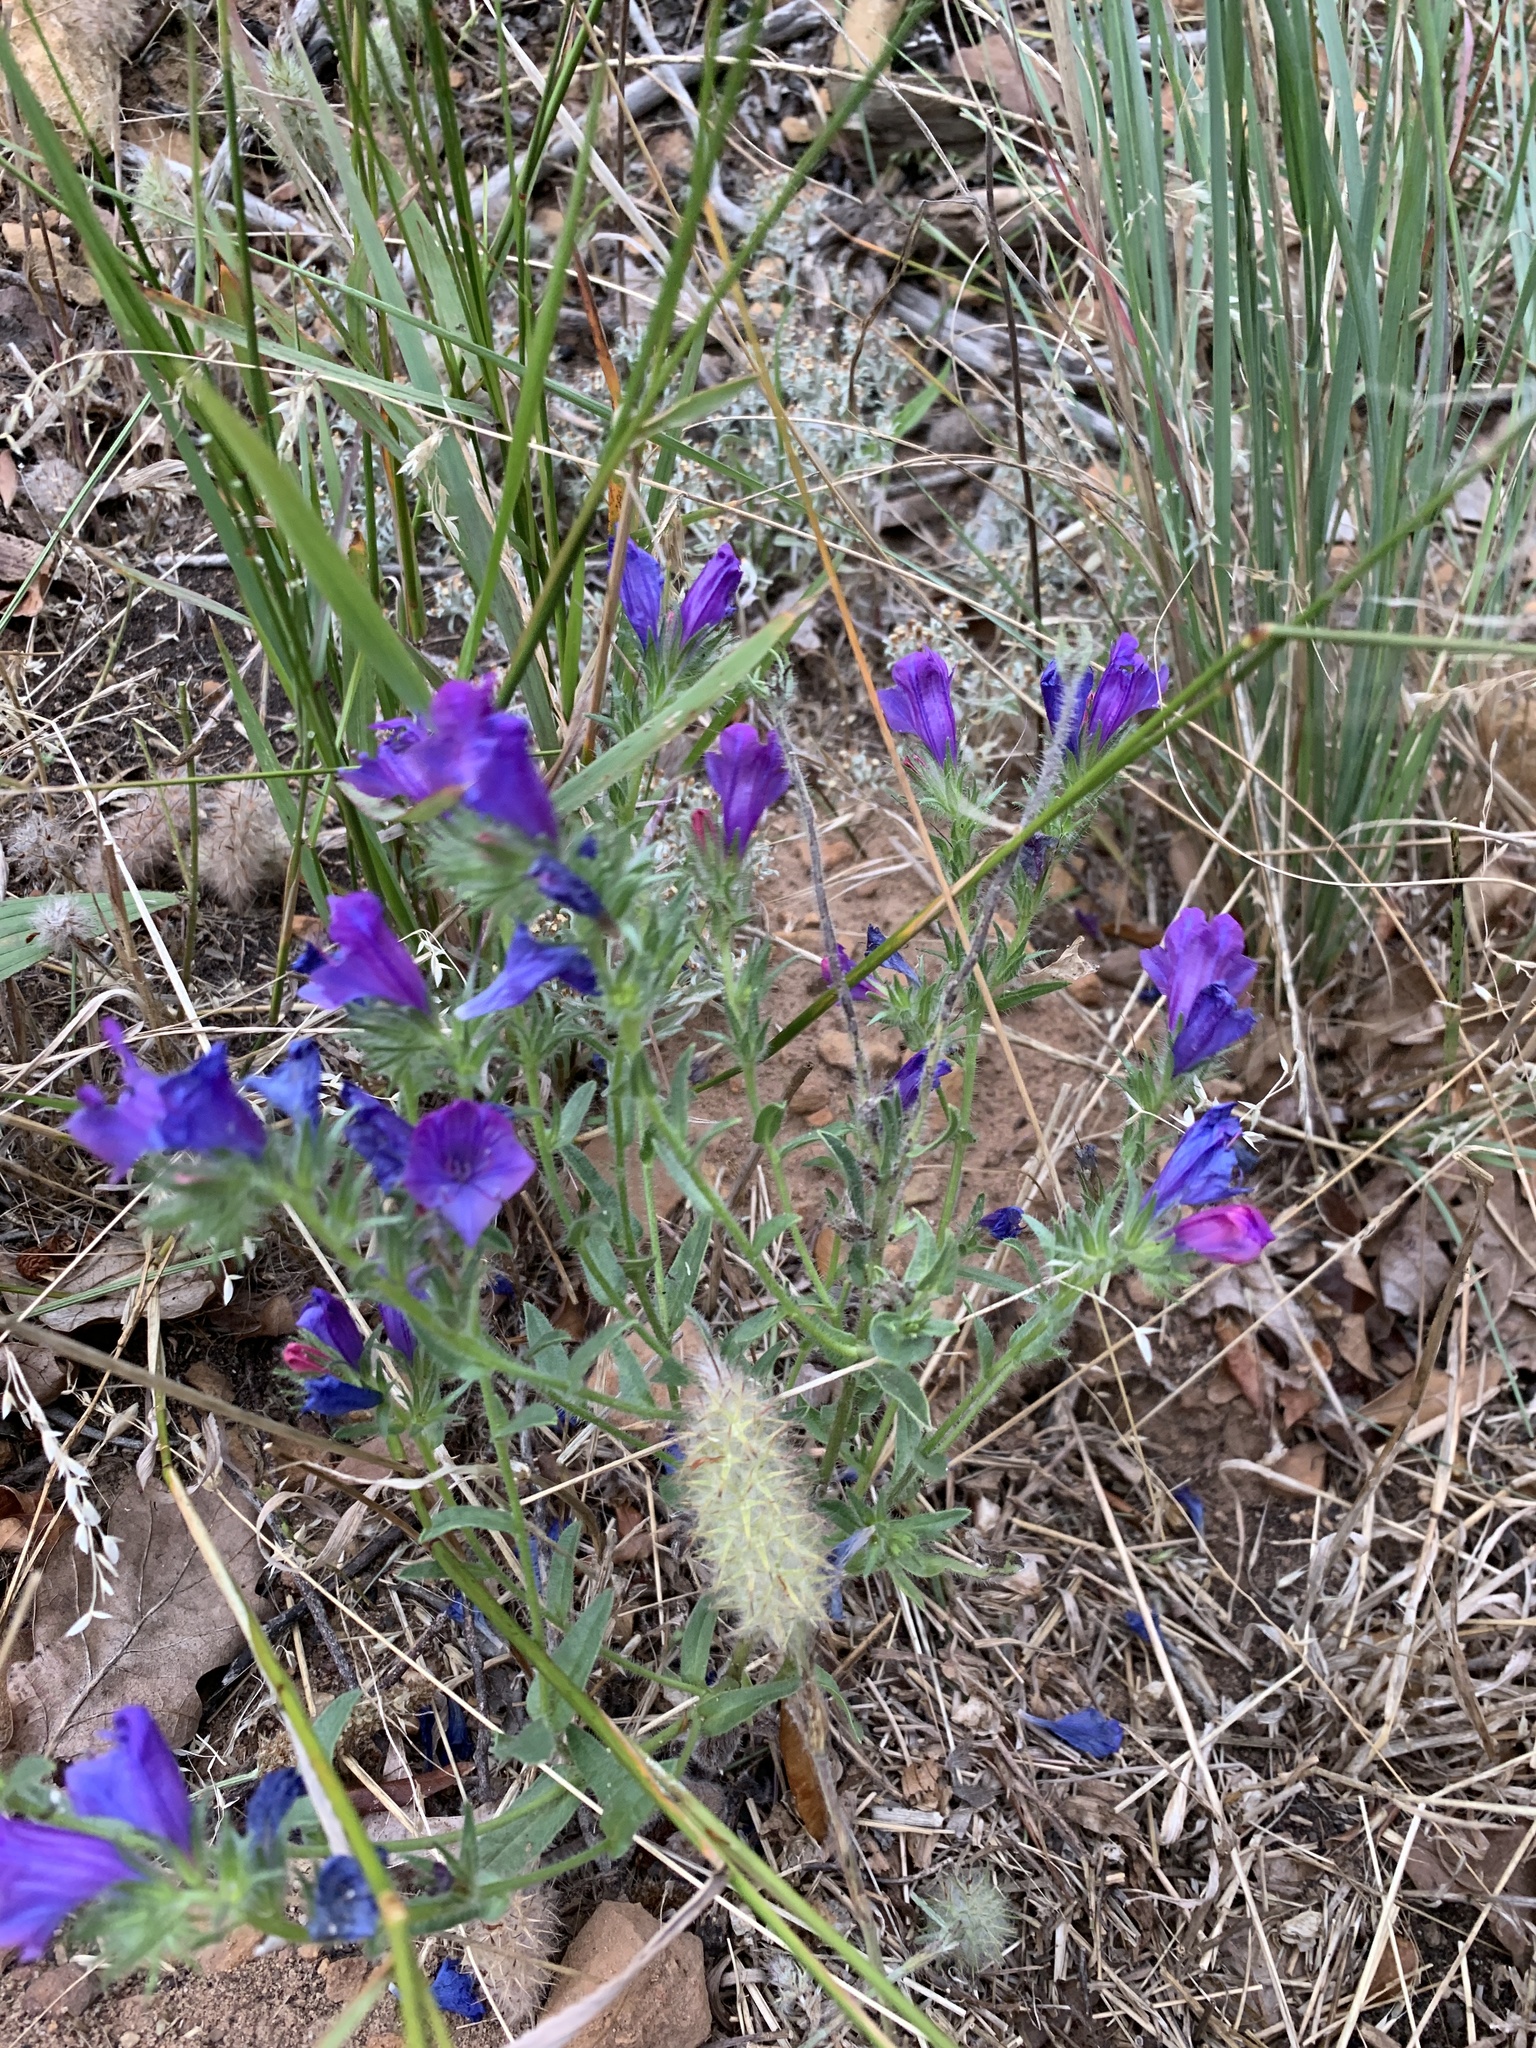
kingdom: Plantae
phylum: Tracheophyta
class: Magnoliopsida
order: Boraginales
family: Boraginaceae
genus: Echium
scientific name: Echium plantagineum
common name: Purple viper's-bugloss
